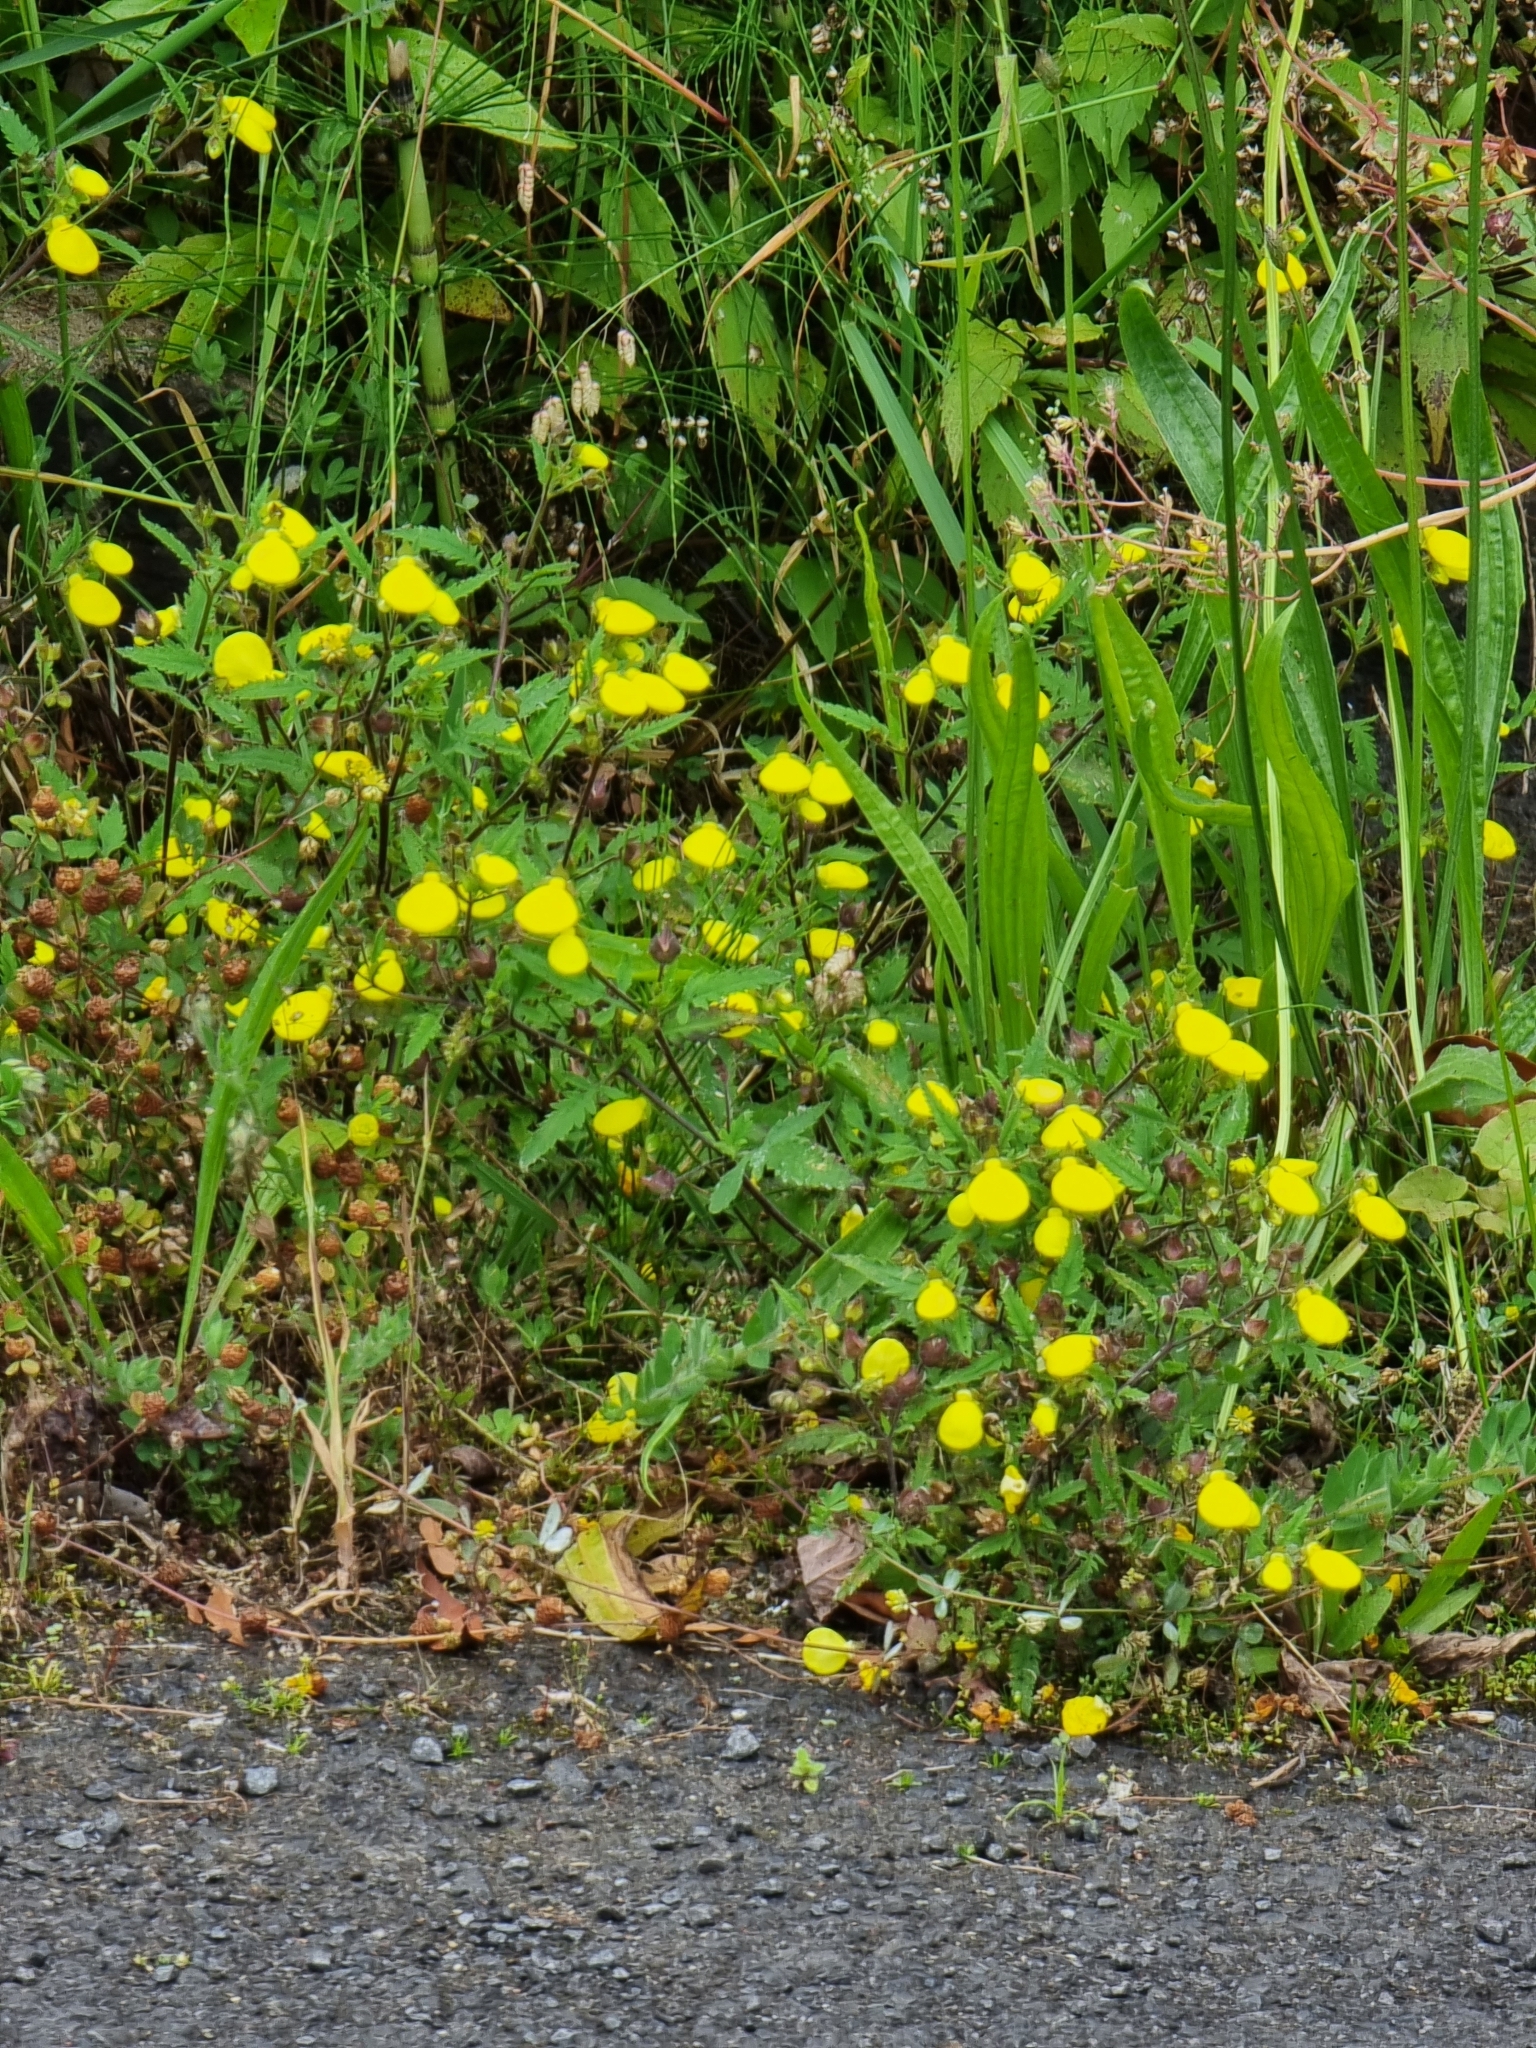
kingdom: Plantae
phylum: Tracheophyta
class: Magnoliopsida
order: Lamiales
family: Calceolariaceae
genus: Calceolaria
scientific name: Calceolaria tripartita
